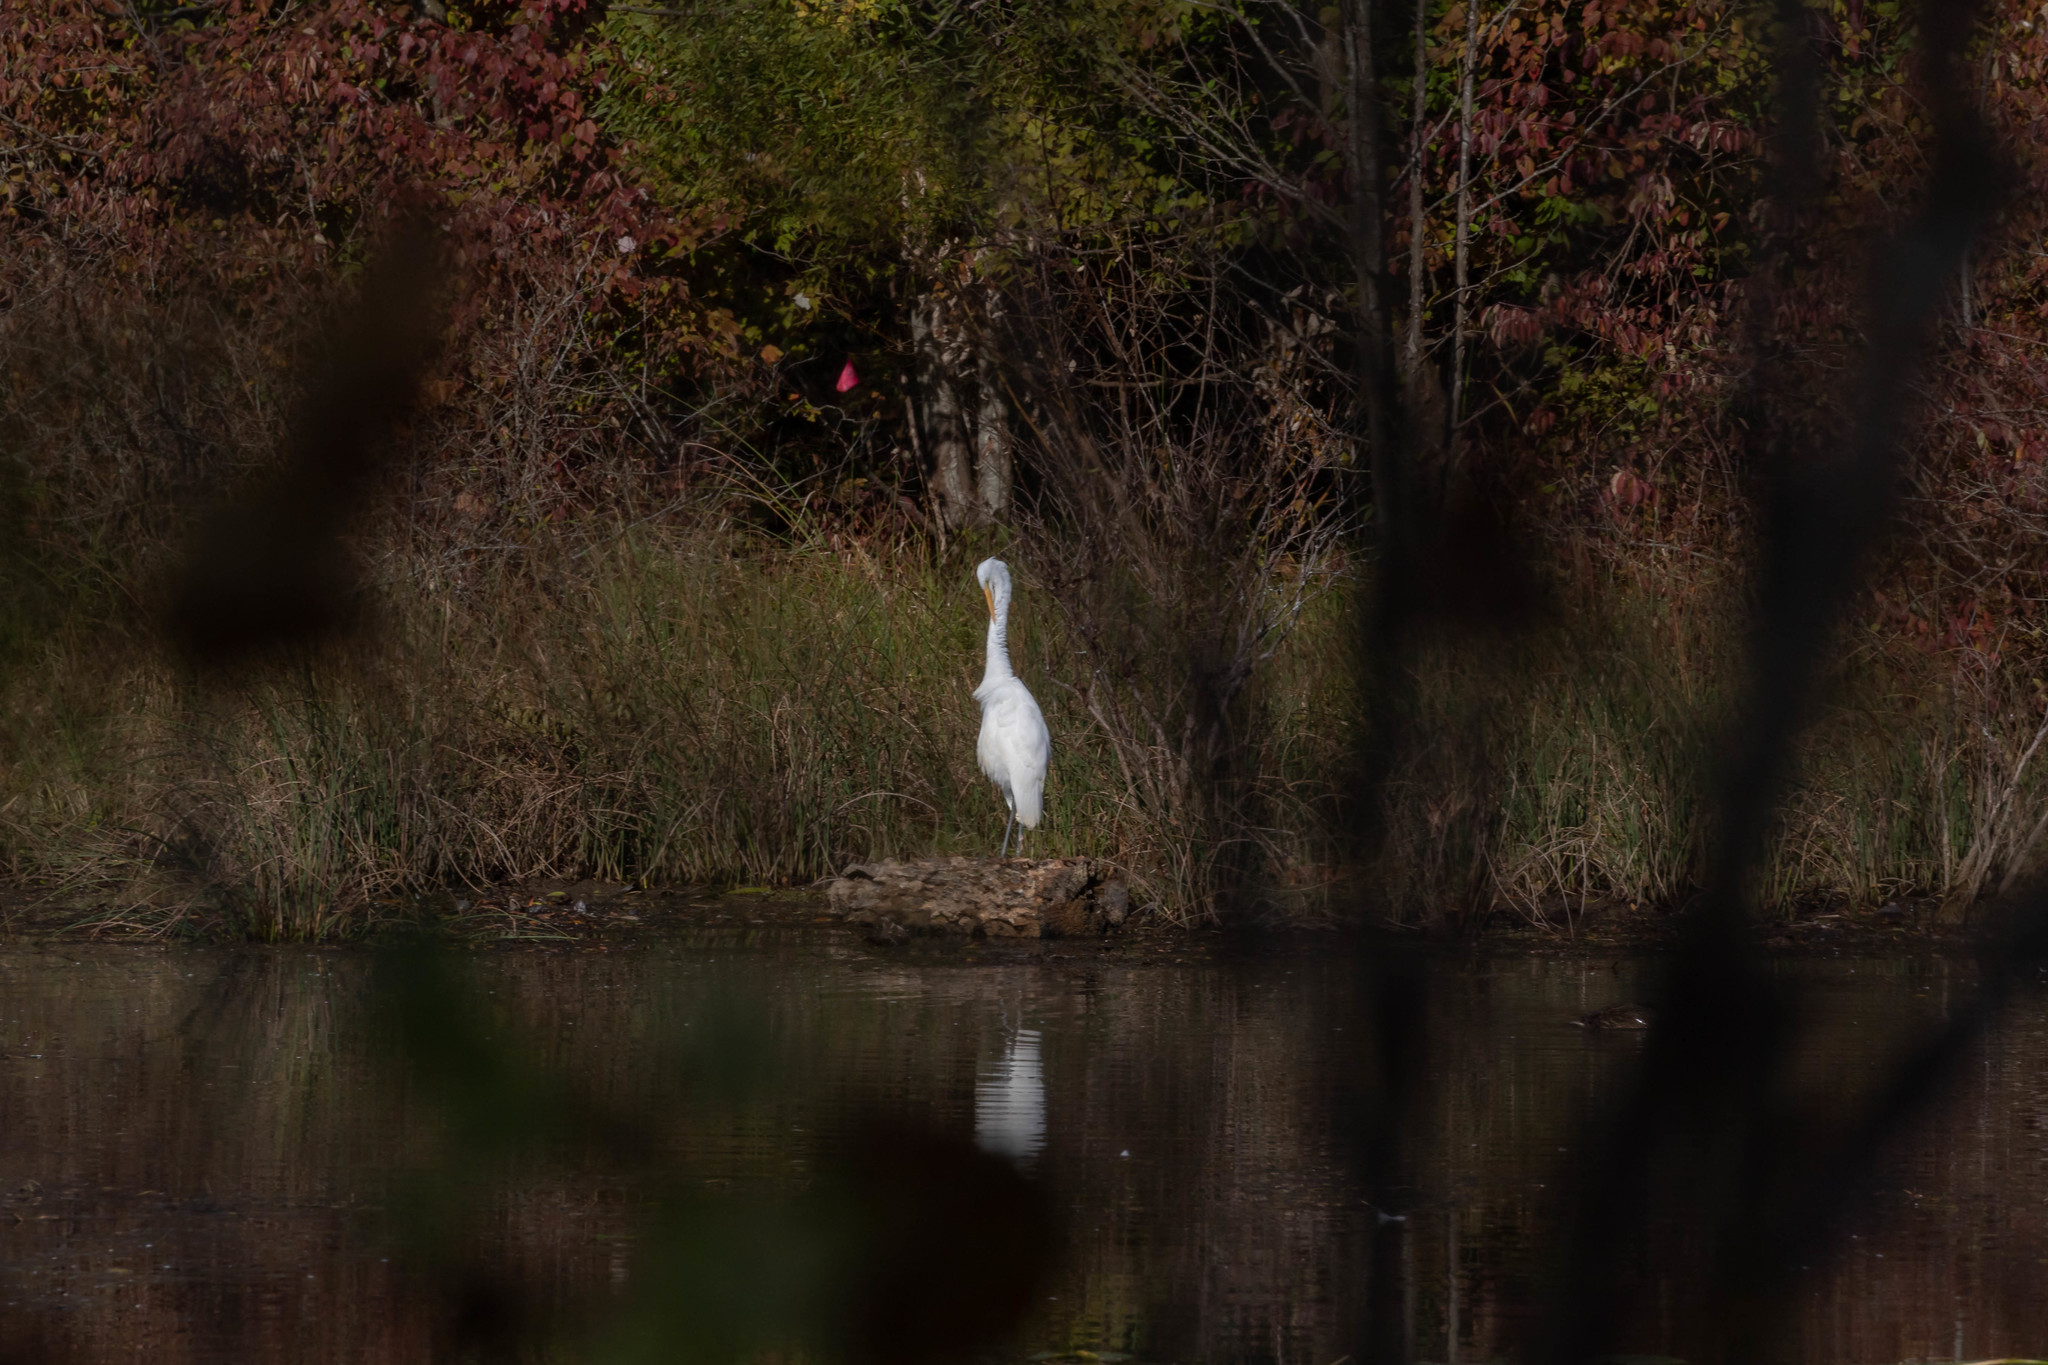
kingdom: Animalia
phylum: Chordata
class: Aves
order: Pelecaniformes
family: Ardeidae
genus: Ardea
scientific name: Ardea alba
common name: Great egret
